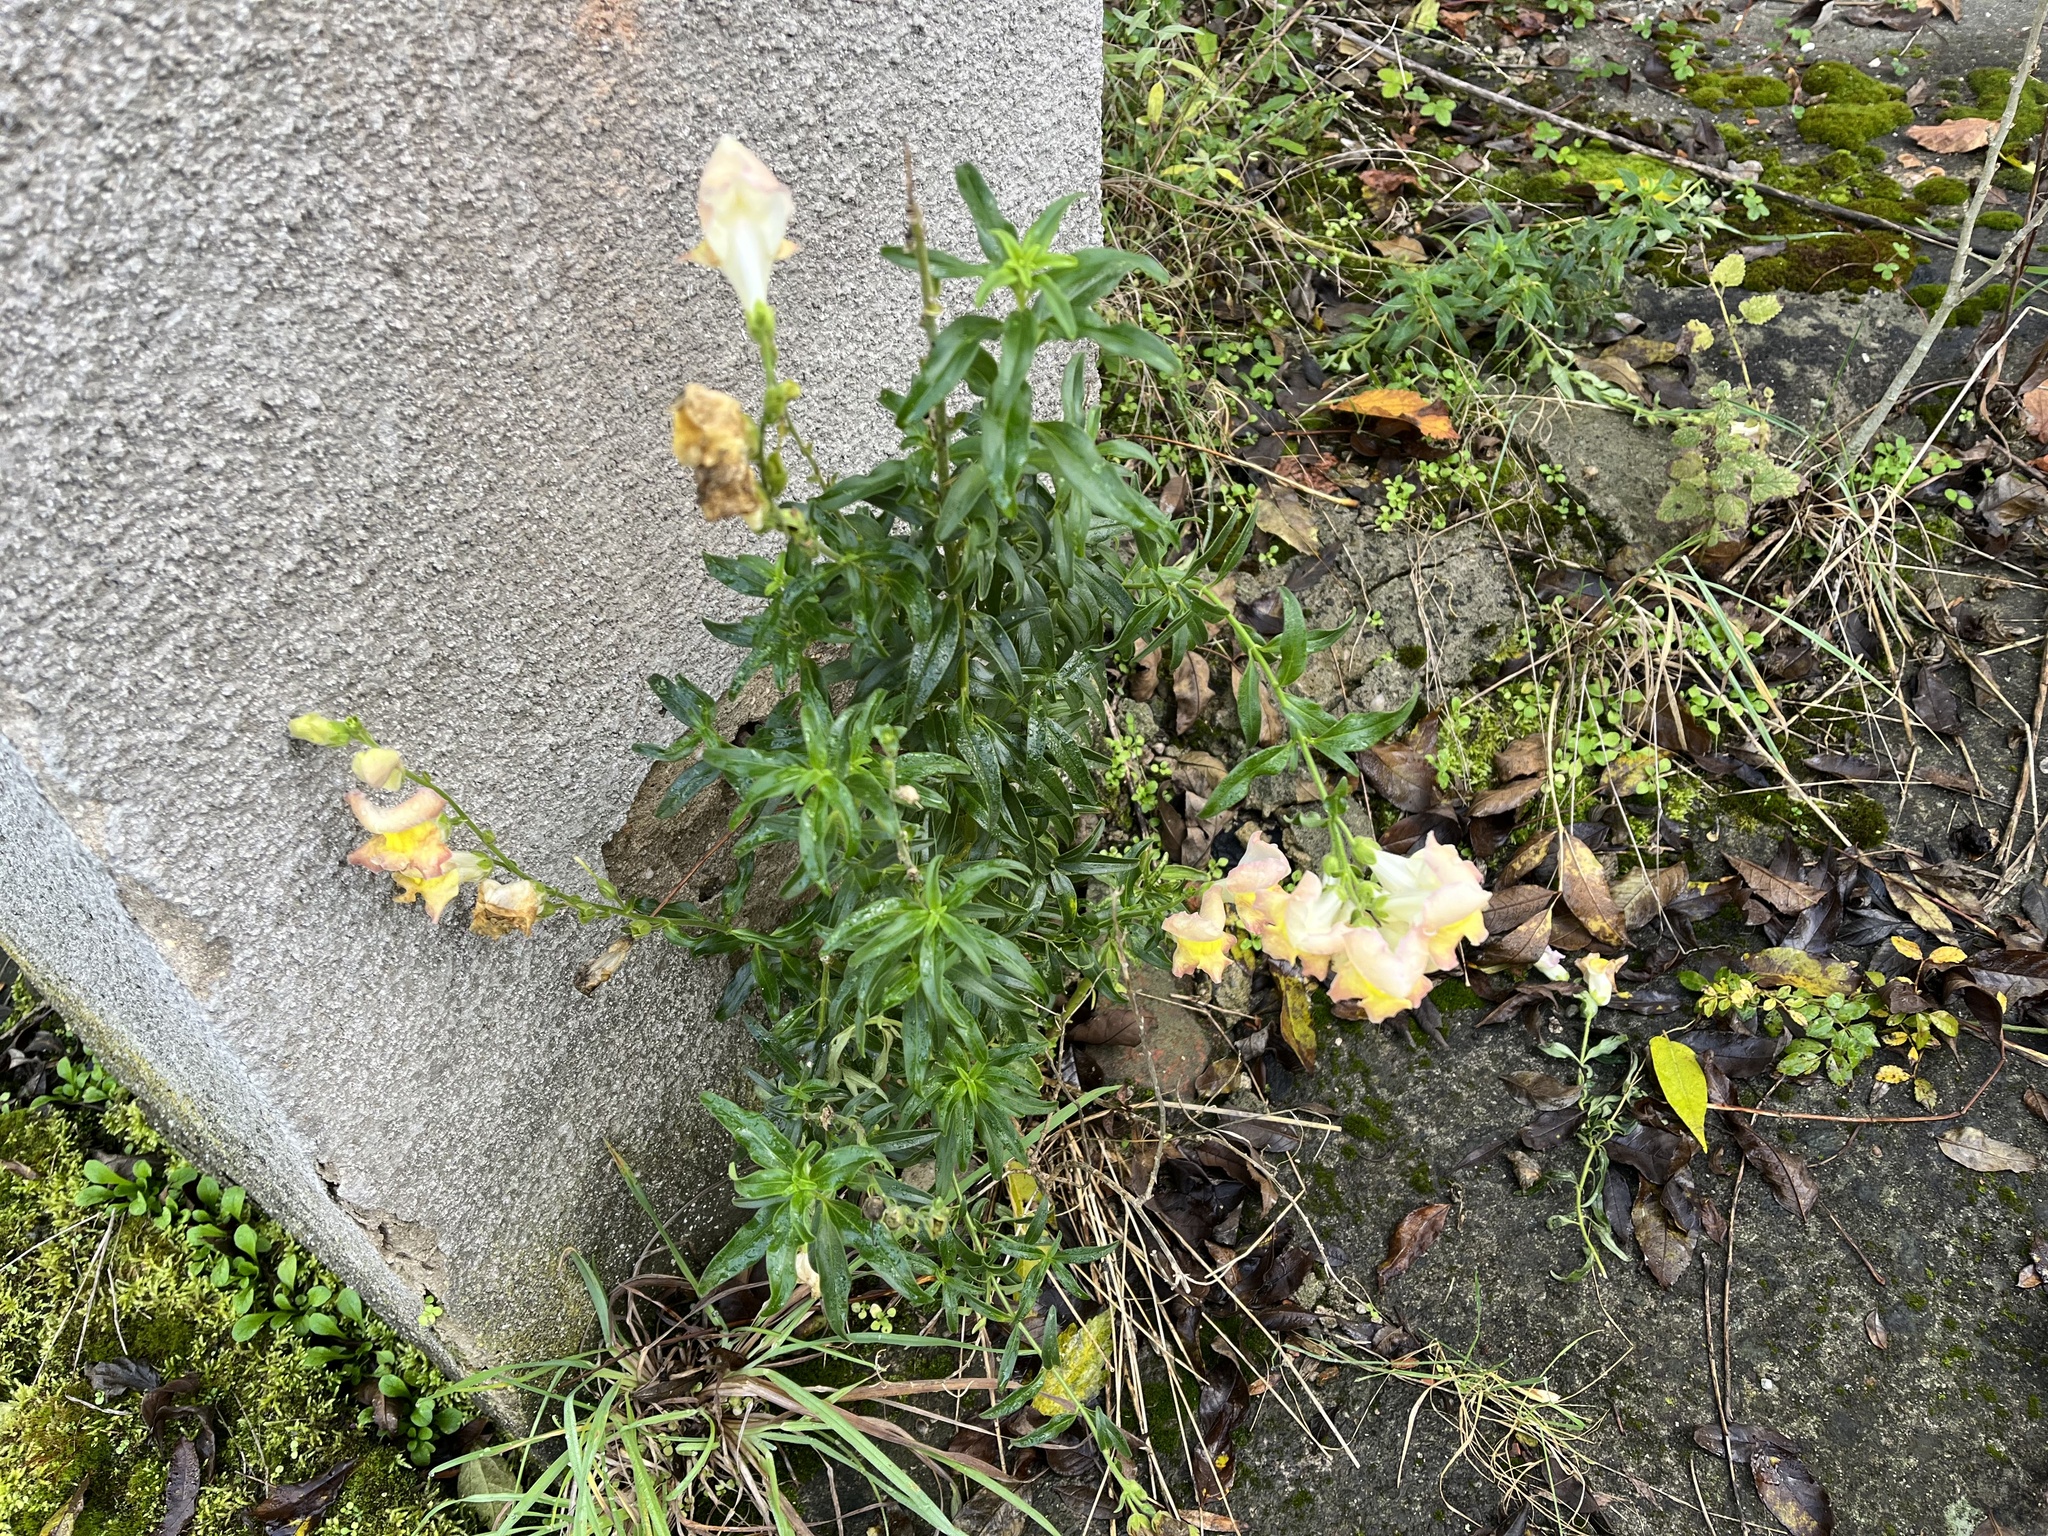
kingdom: Plantae
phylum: Tracheophyta
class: Magnoliopsida
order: Lamiales
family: Plantaginaceae
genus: Antirrhinum
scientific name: Antirrhinum majus
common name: Snapdragon
